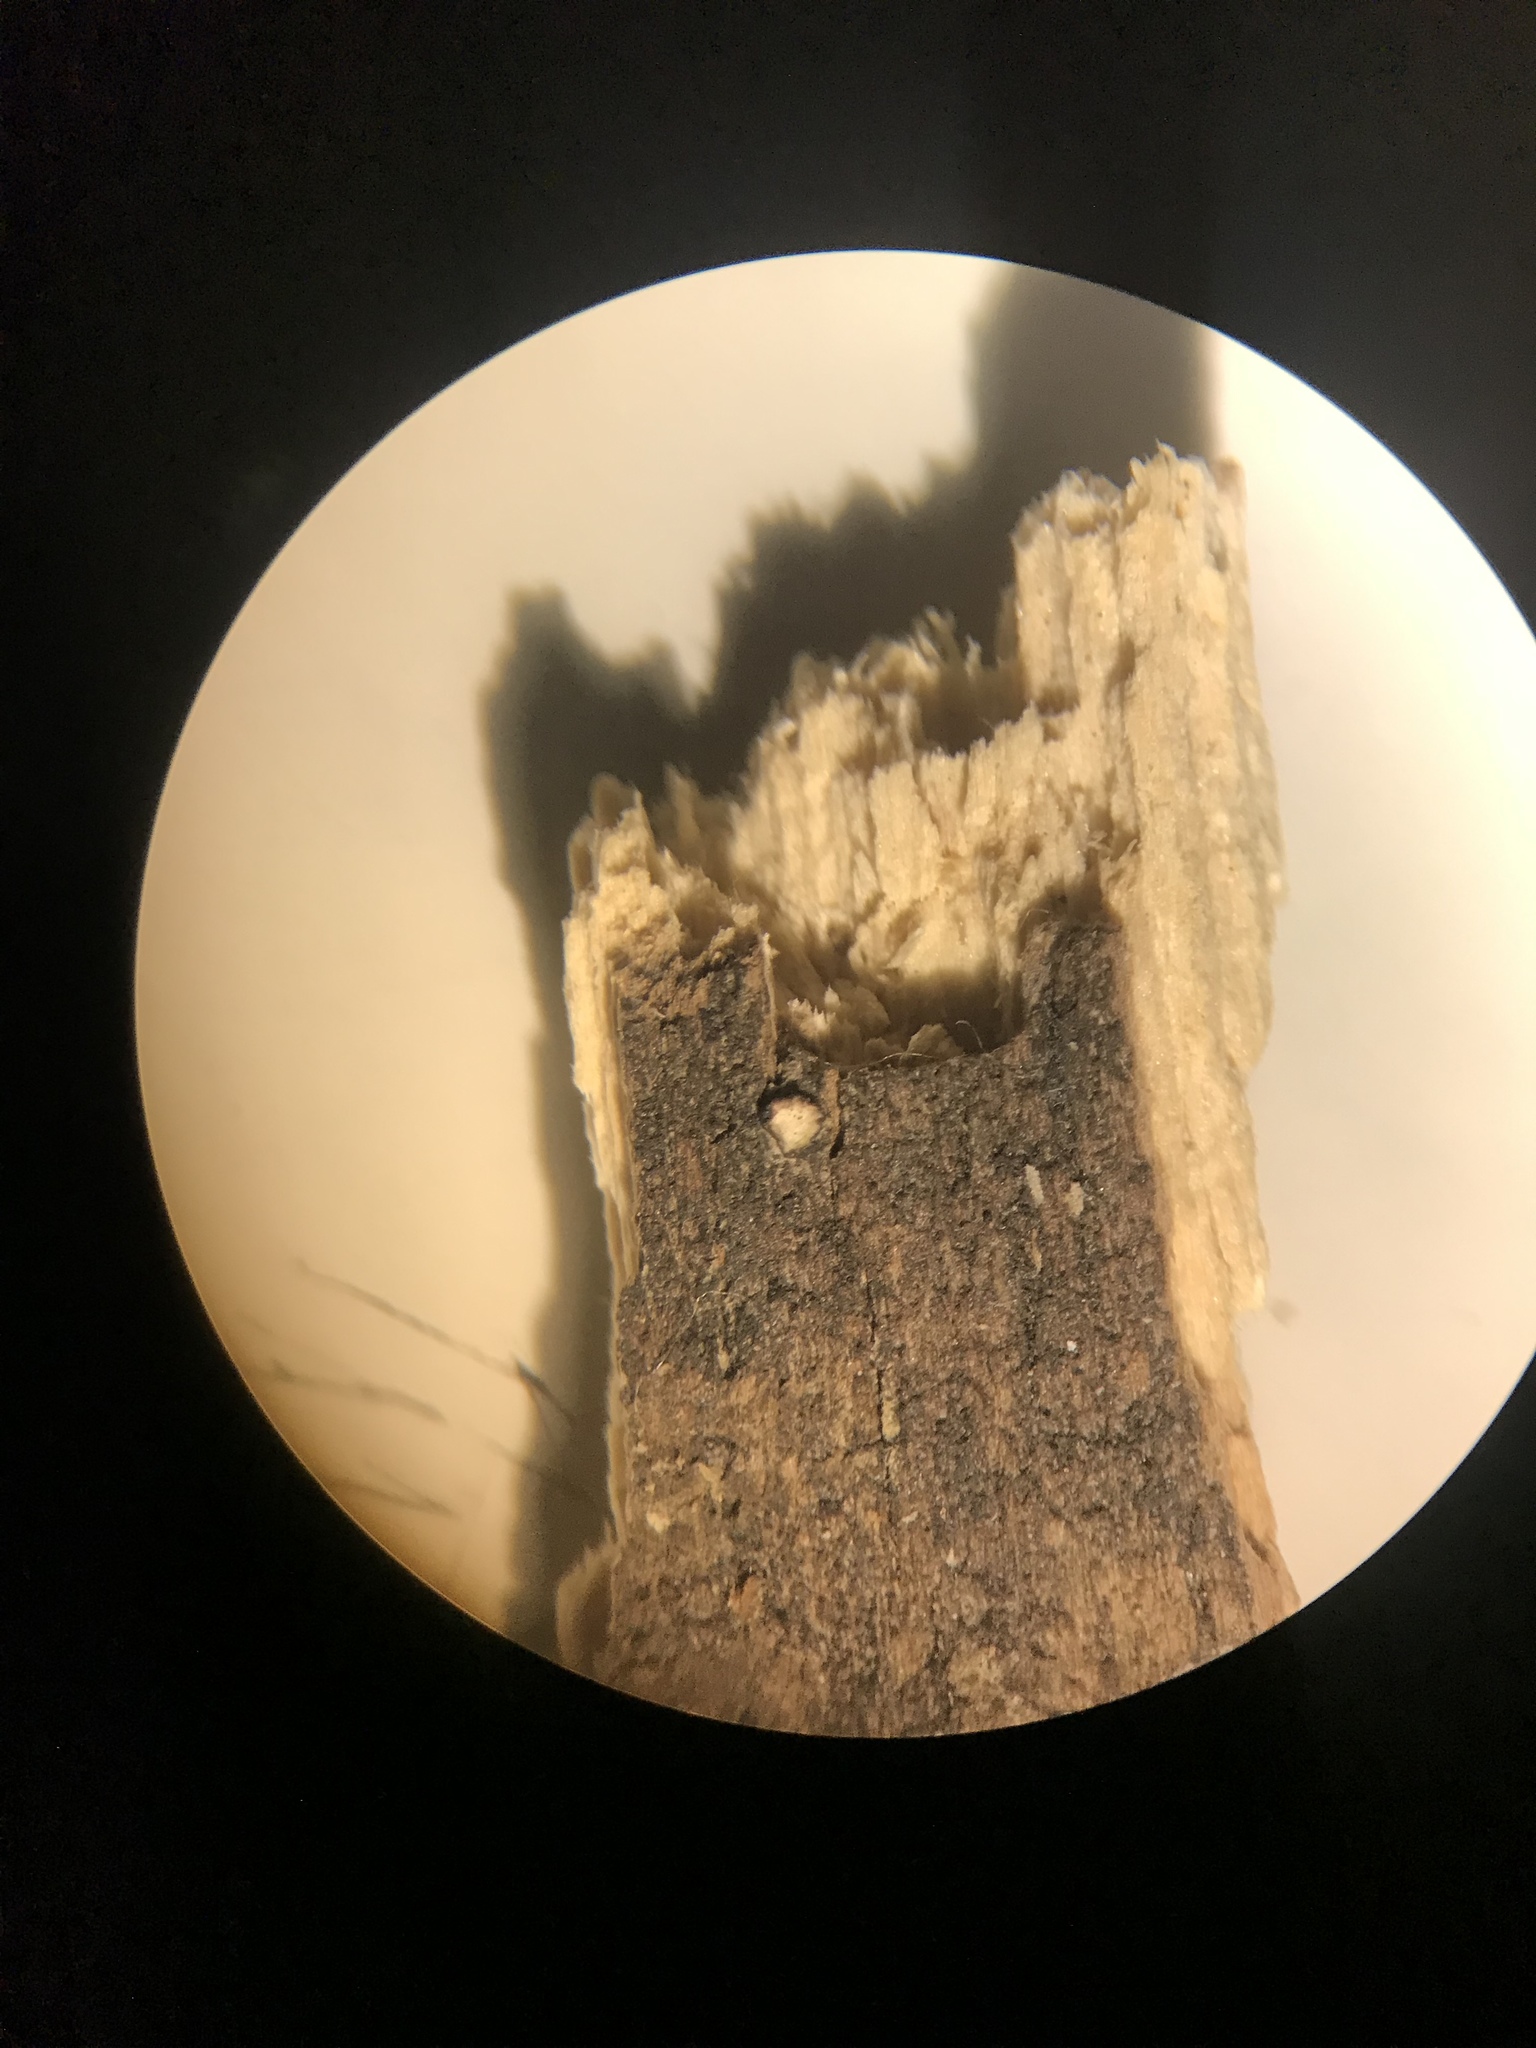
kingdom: Fungi
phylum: Ascomycota
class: Dothideomycetes
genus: Catinella
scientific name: Catinella olivacea
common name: Olive salver
